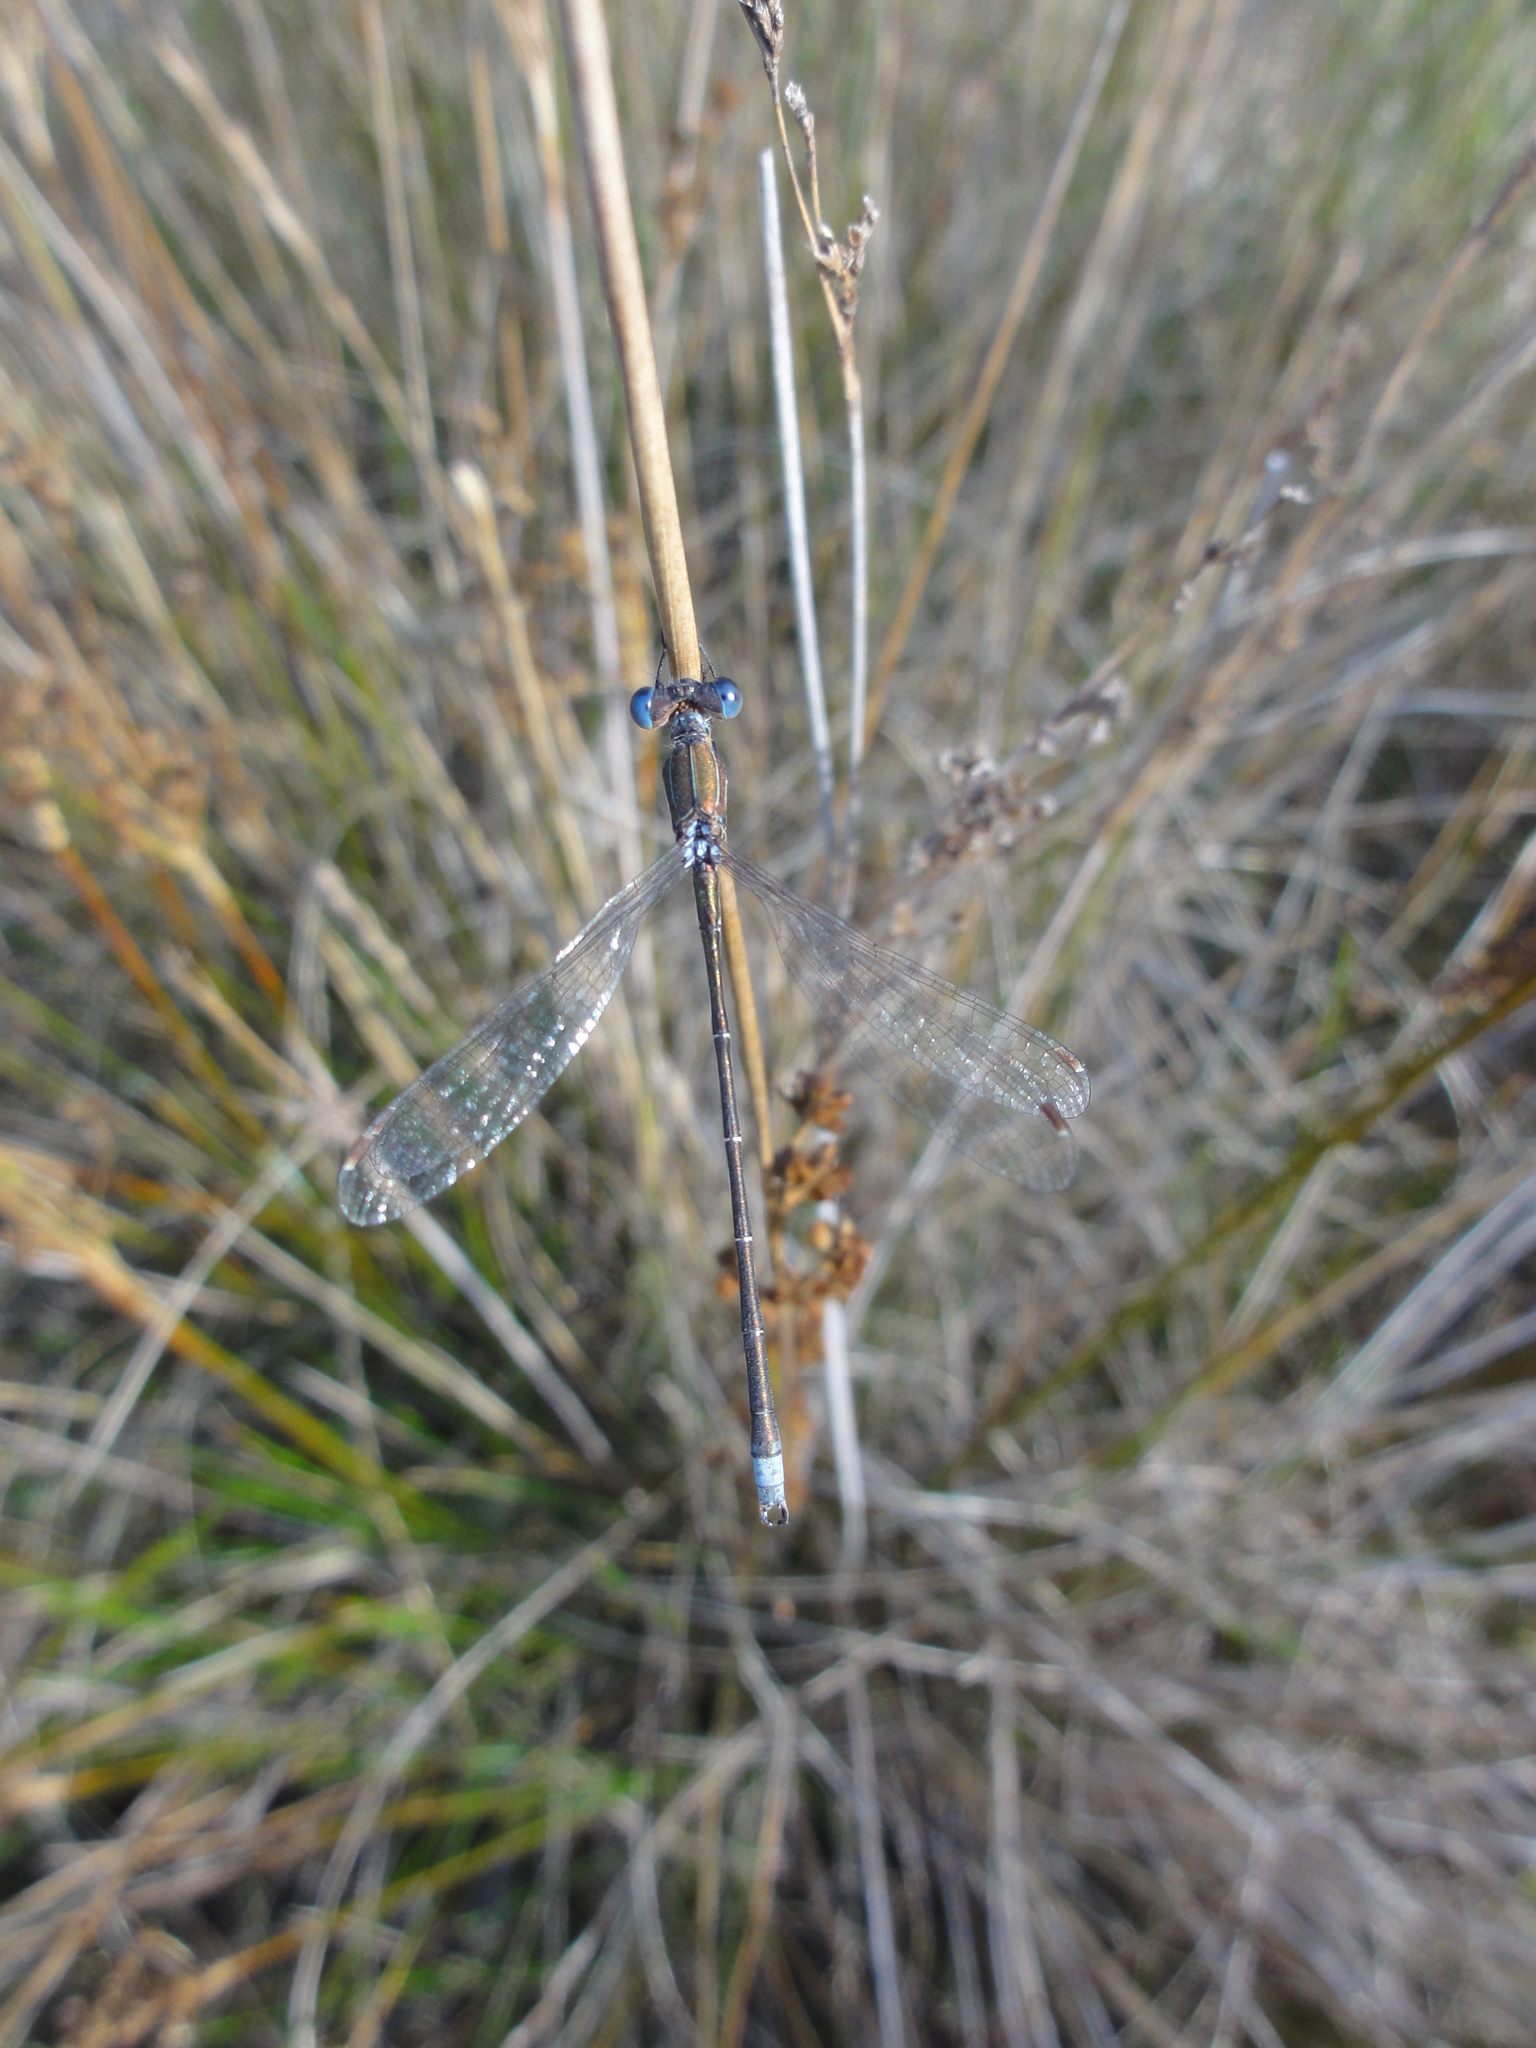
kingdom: Animalia
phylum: Arthropoda
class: Insecta
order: Odonata
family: Lestidae
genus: Lestes
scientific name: Lestes virens
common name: Small emerald spreadwing
